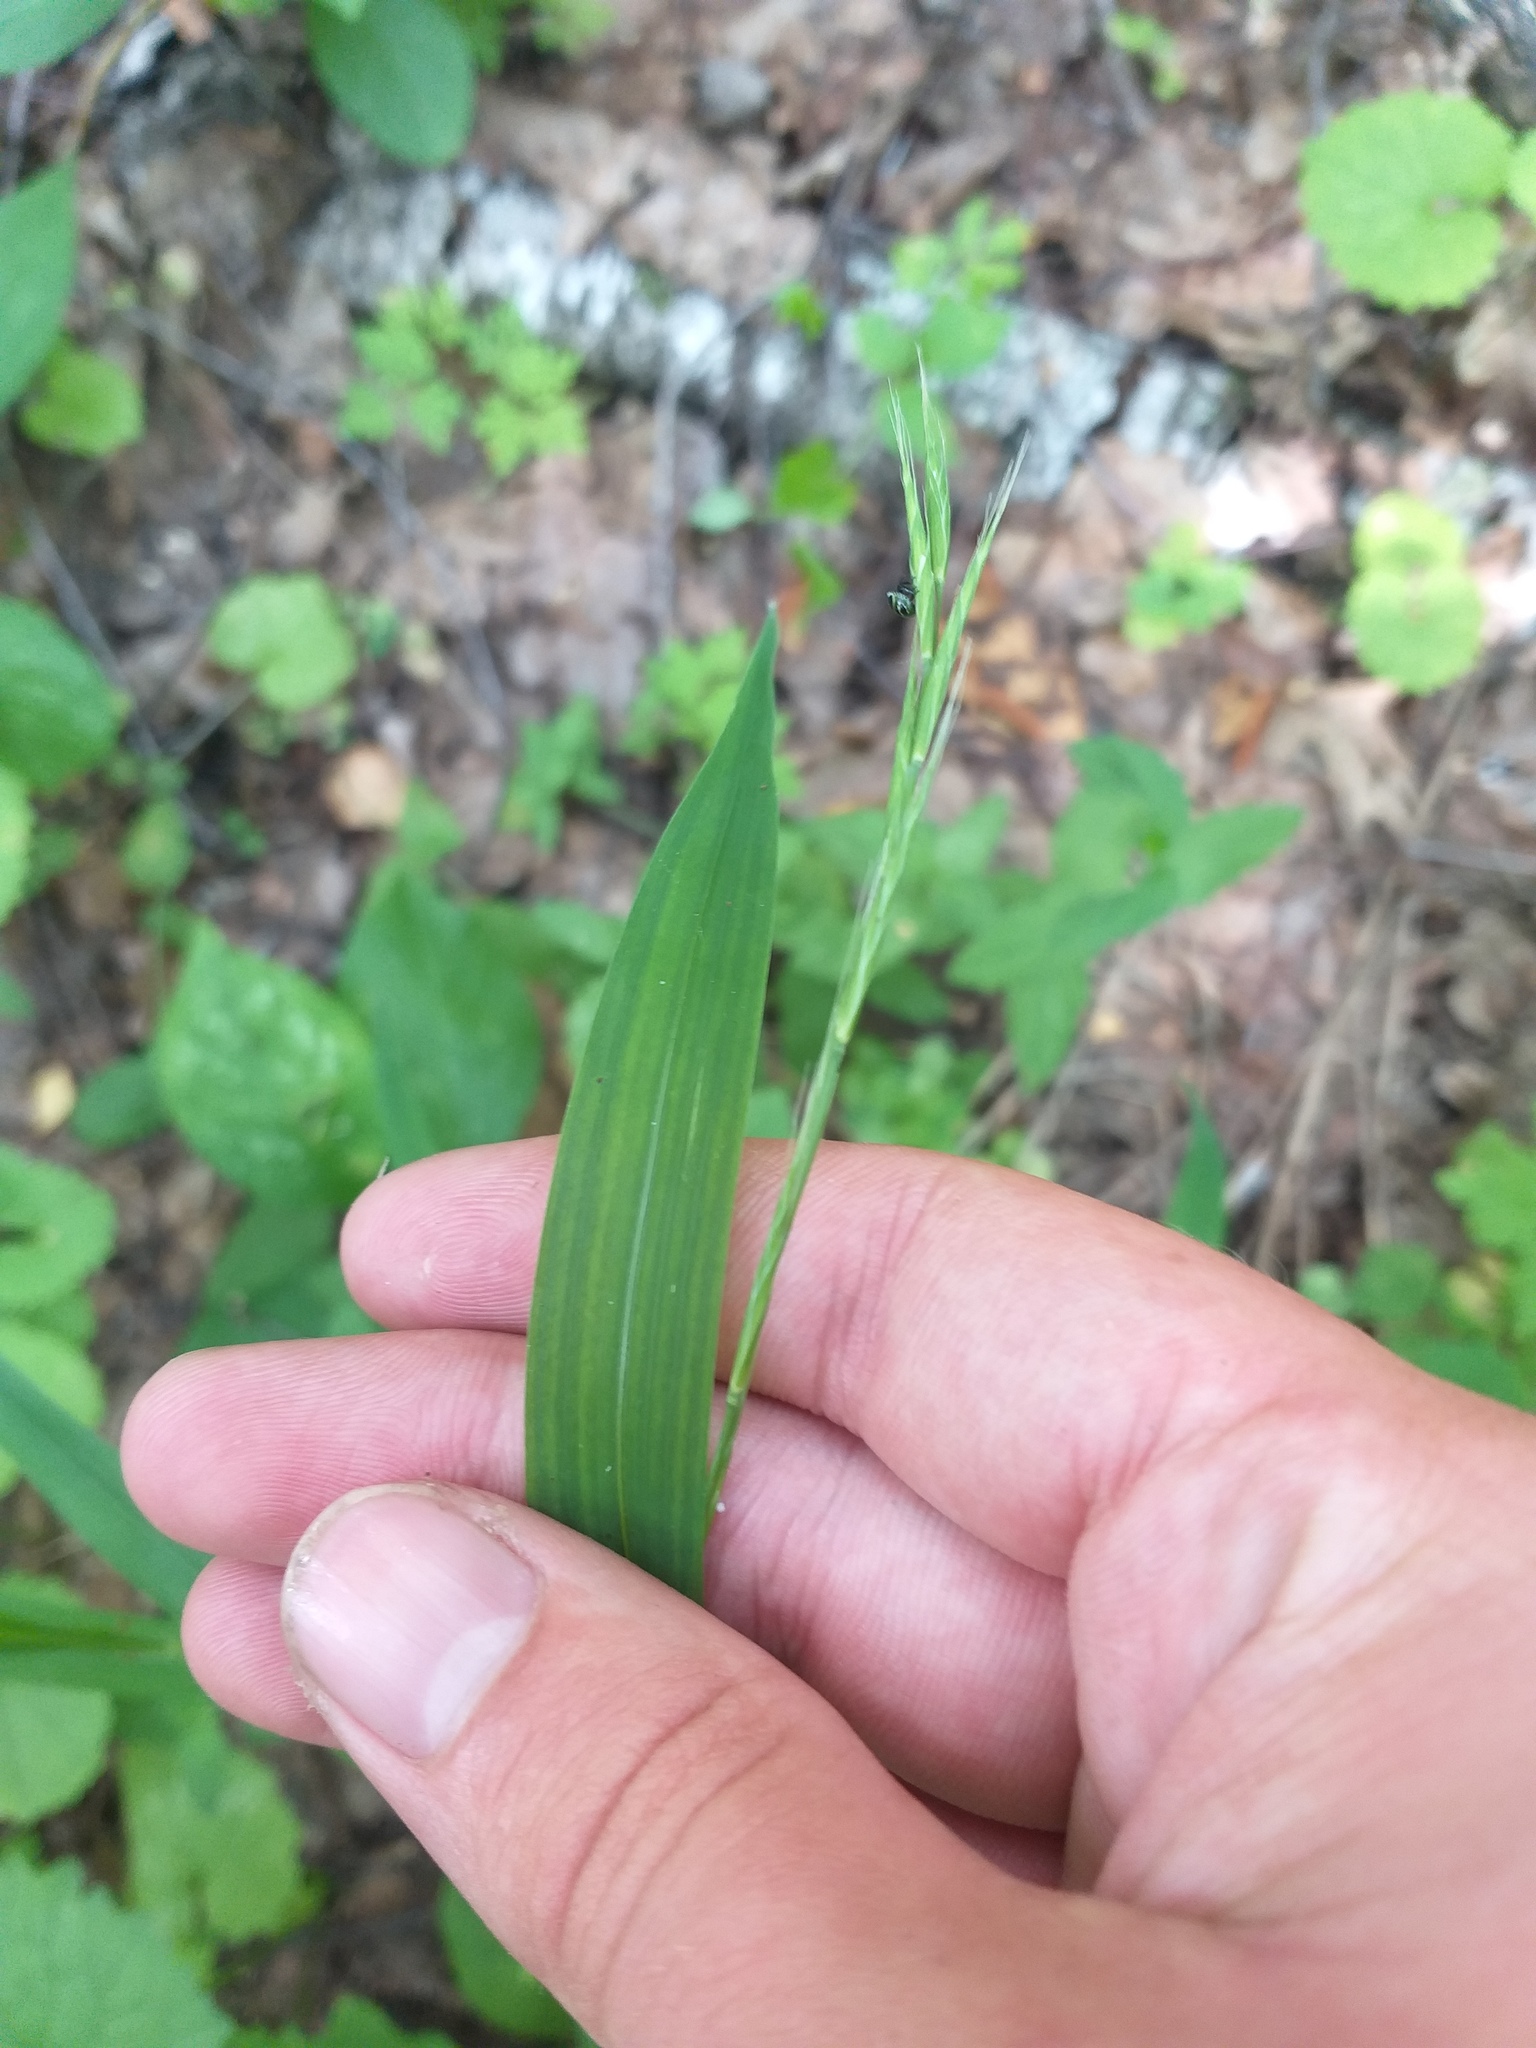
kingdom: Plantae
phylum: Tracheophyta
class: Liliopsida
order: Poales
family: Poaceae
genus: Brachypodium
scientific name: Brachypodium sylvaticum
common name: False-brome
